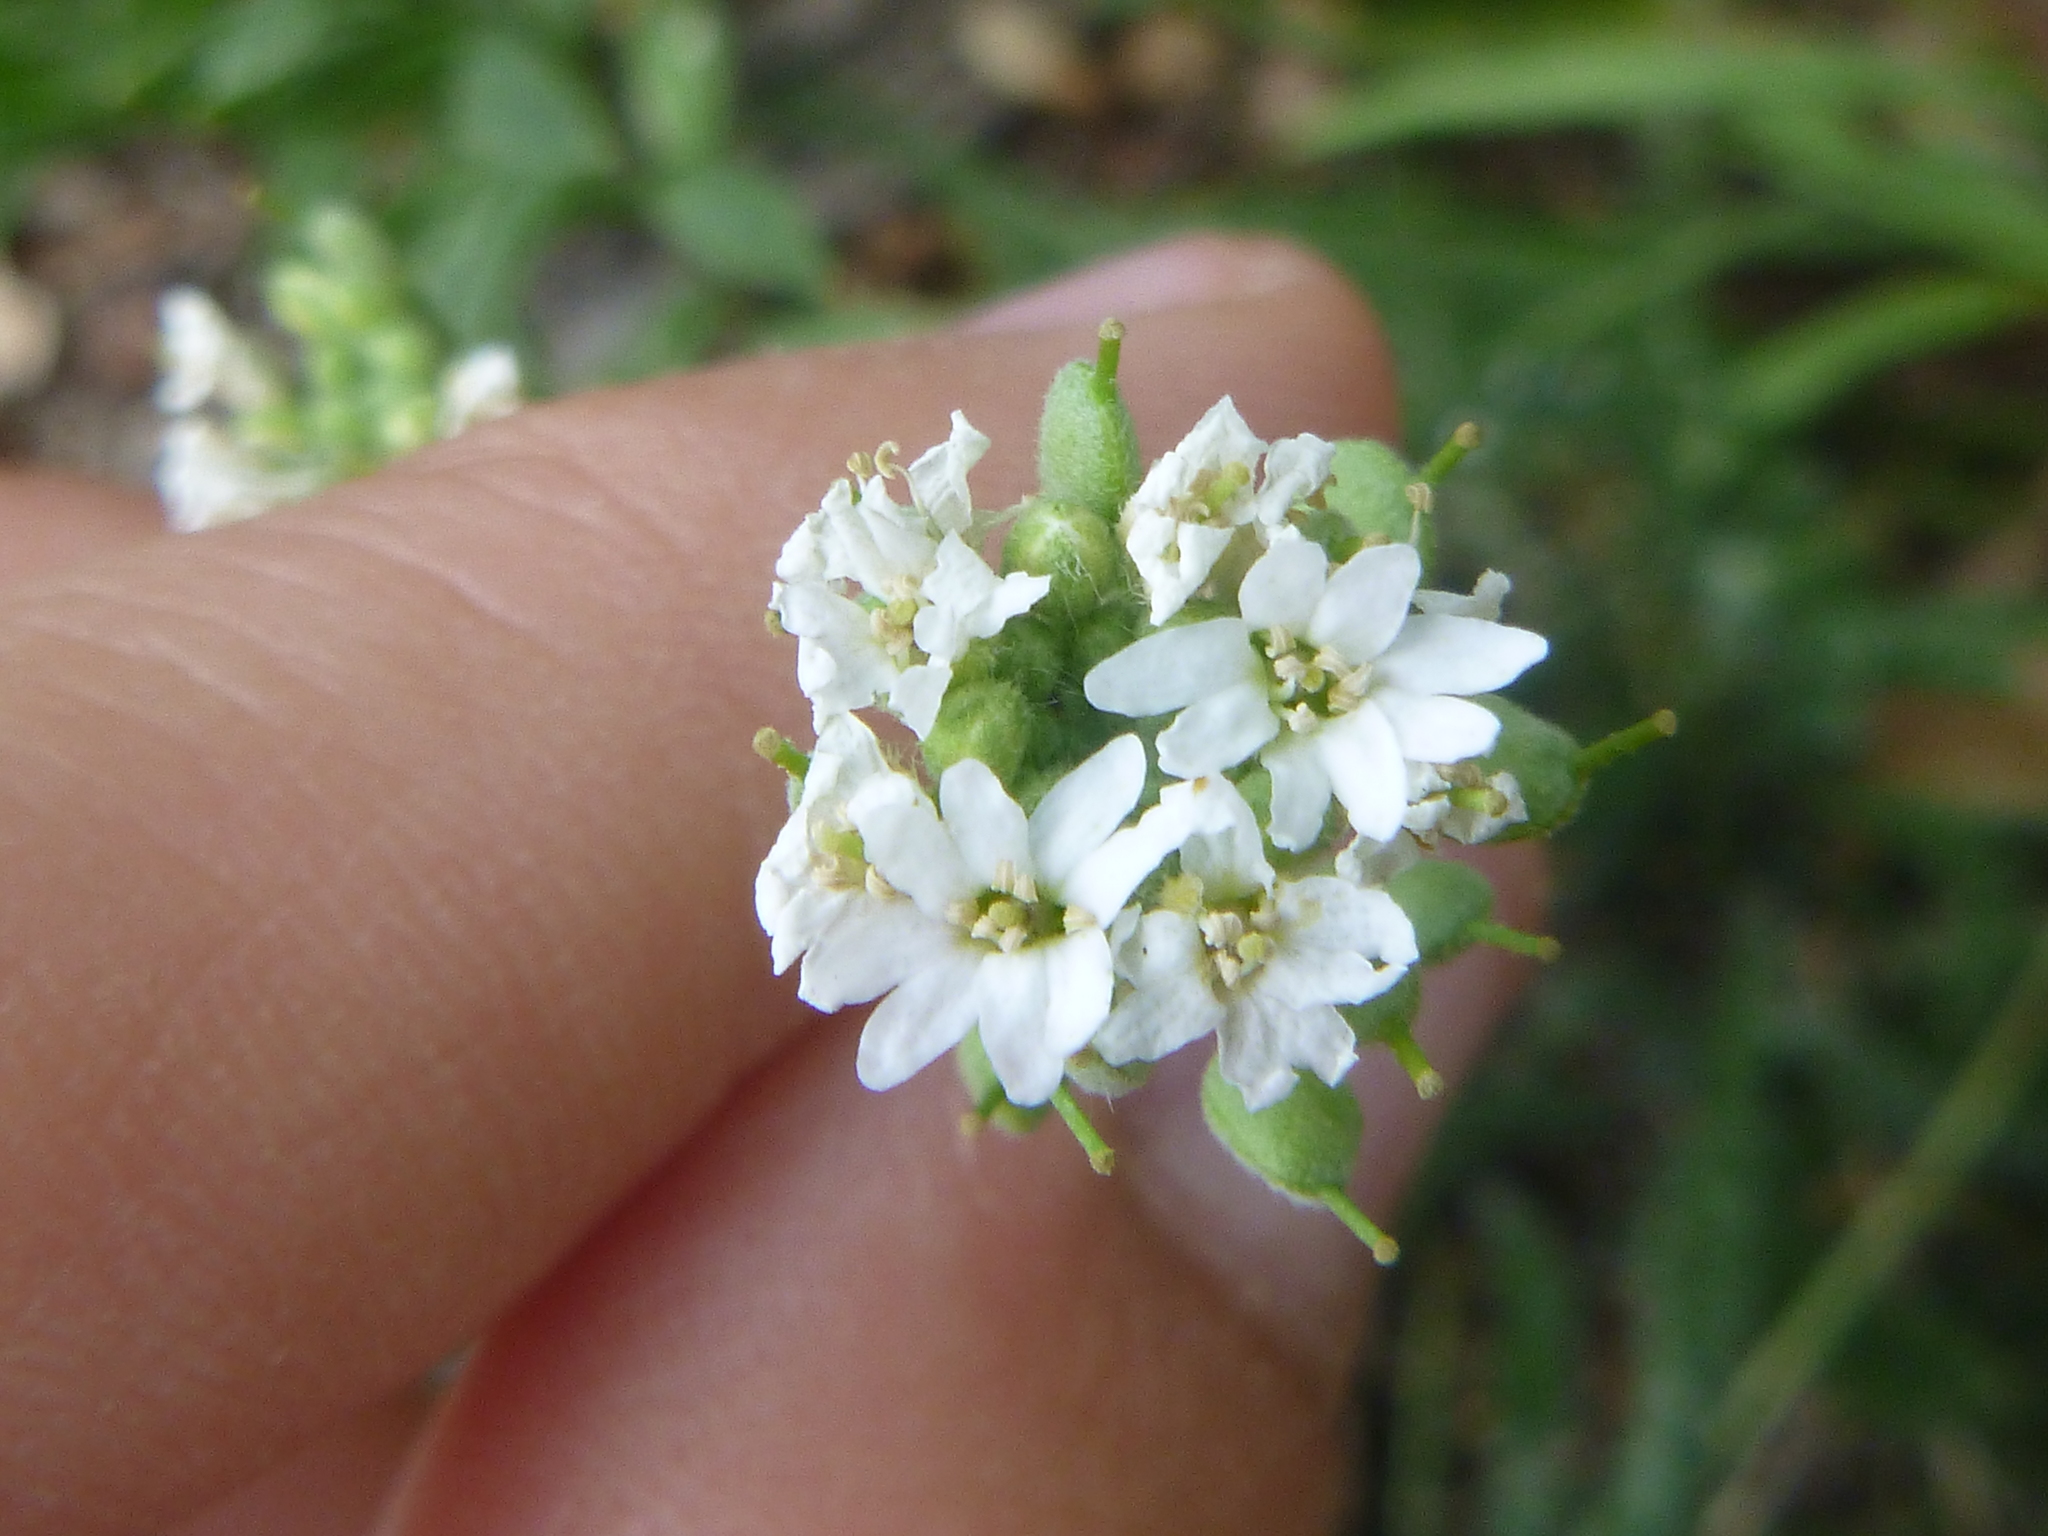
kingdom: Plantae
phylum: Tracheophyta
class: Magnoliopsida
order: Brassicales
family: Brassicaceae
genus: Berteroa
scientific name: Berteroa incana
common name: Hoary alison
